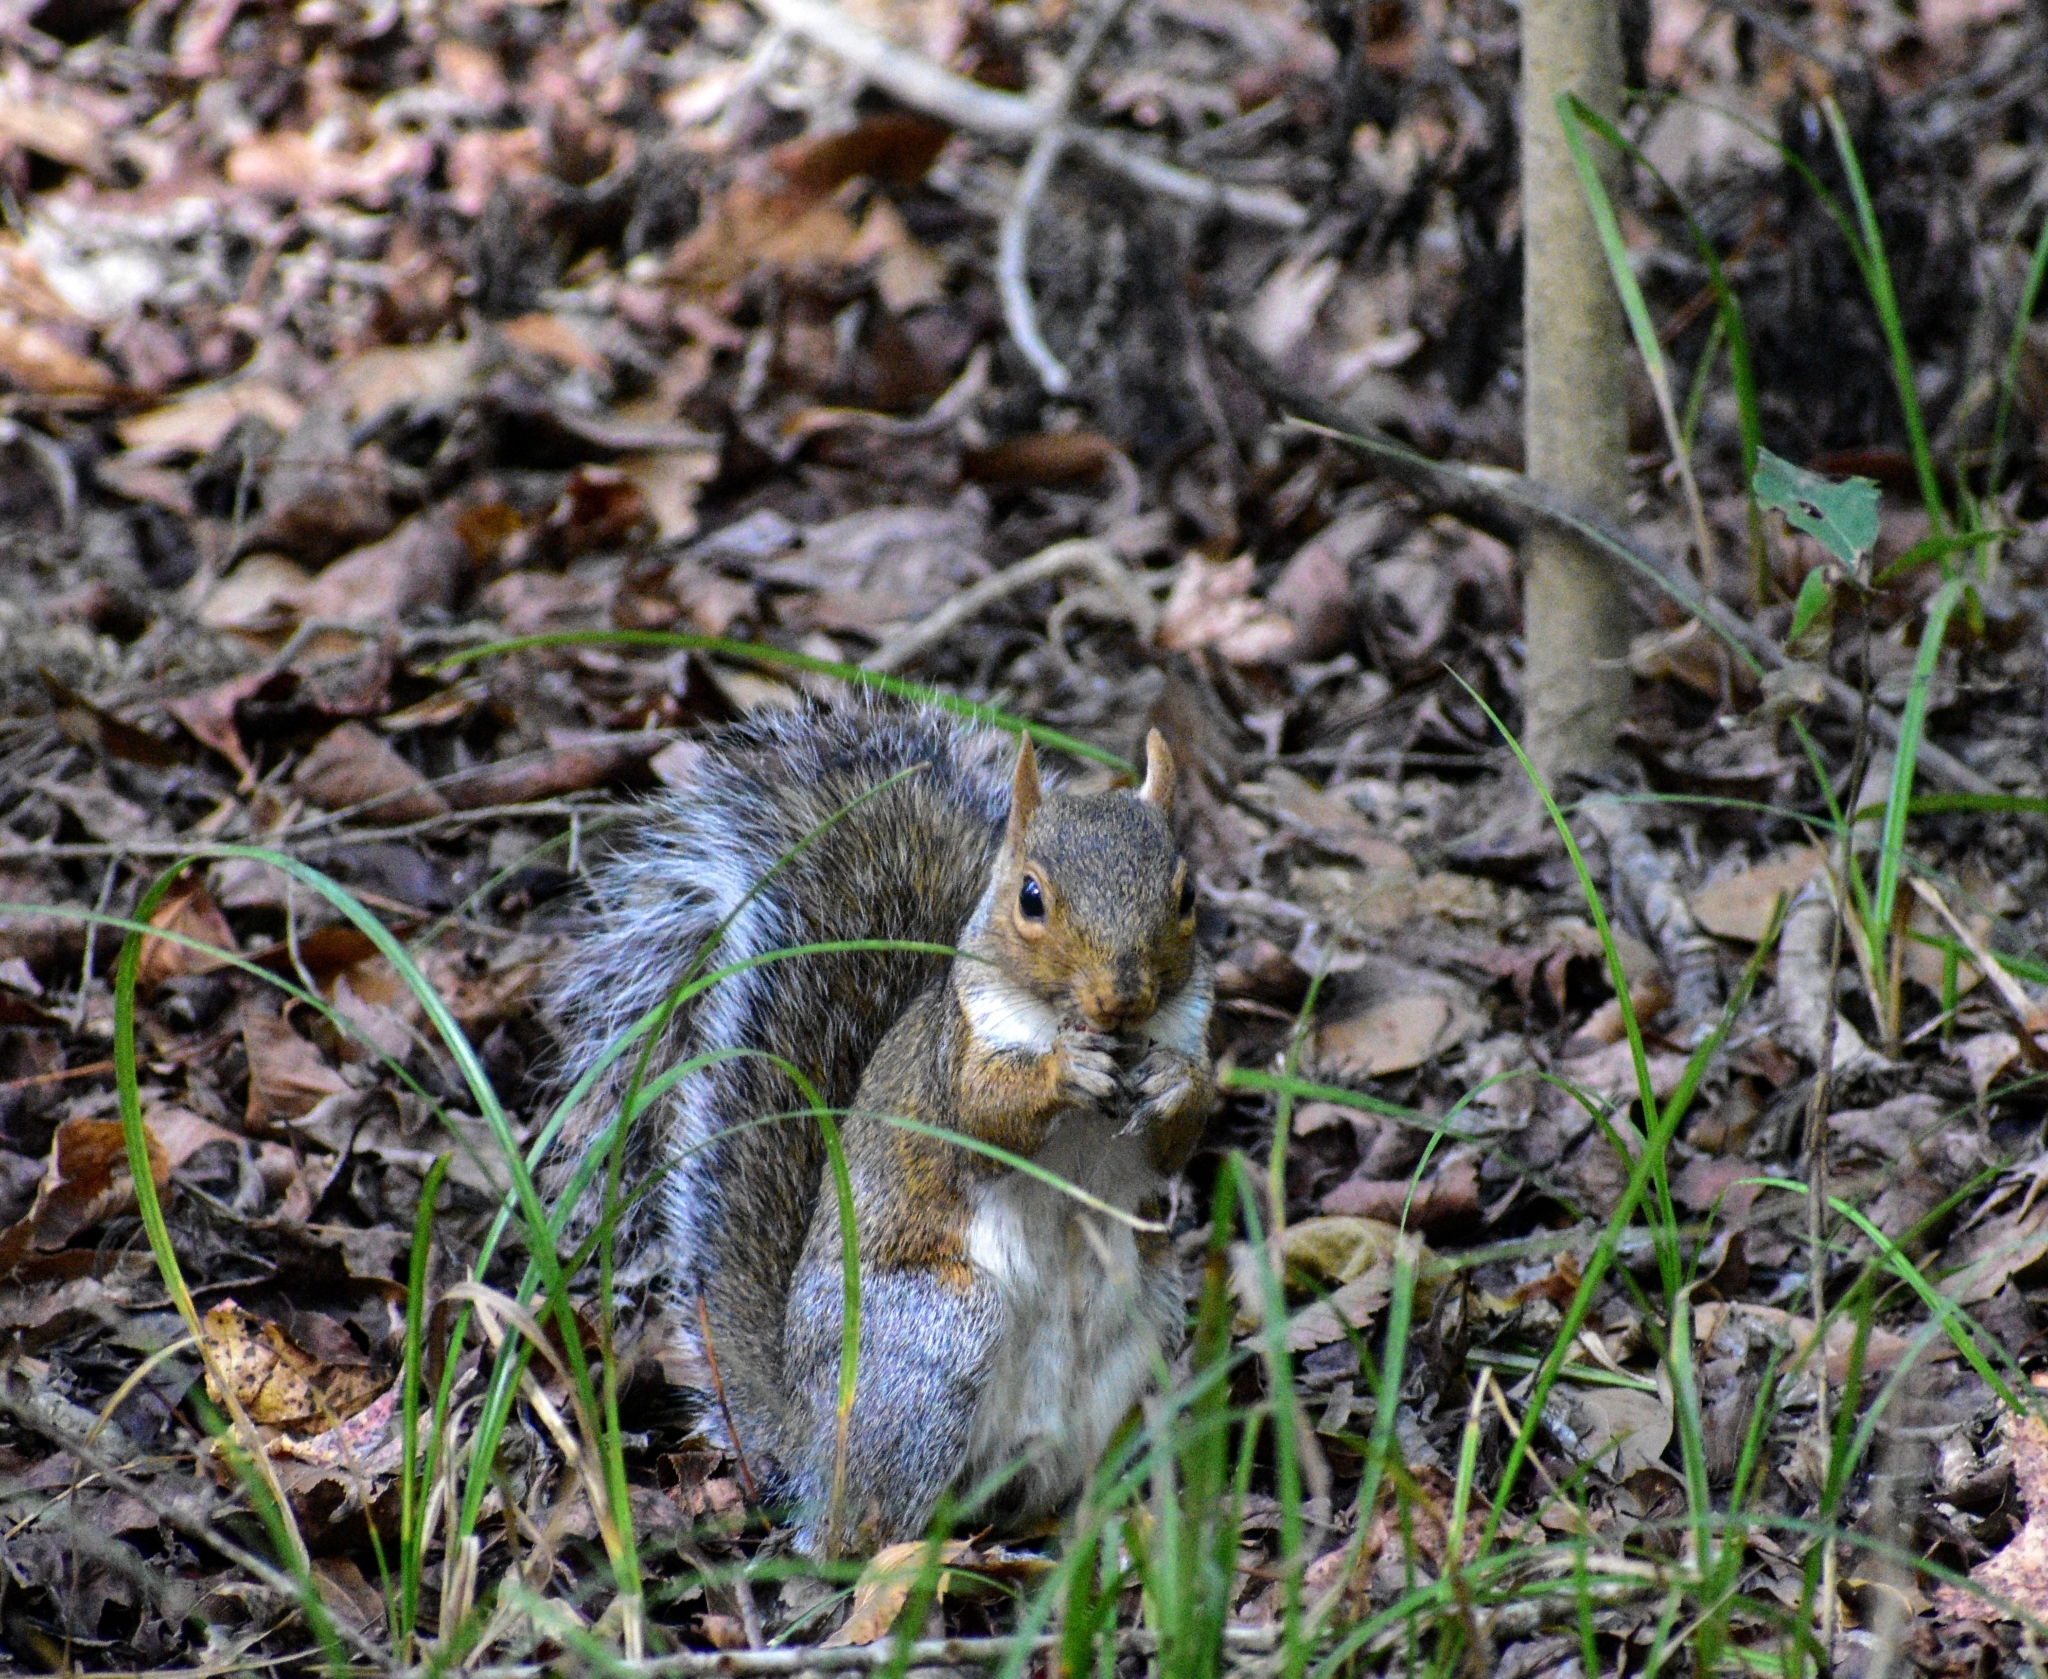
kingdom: Animalia
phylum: Chordata
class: Mammalia
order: Rodentia
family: Sciuridae
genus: Sciurus
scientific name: Sciurus carolinensis
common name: Eastern gray squirrel
